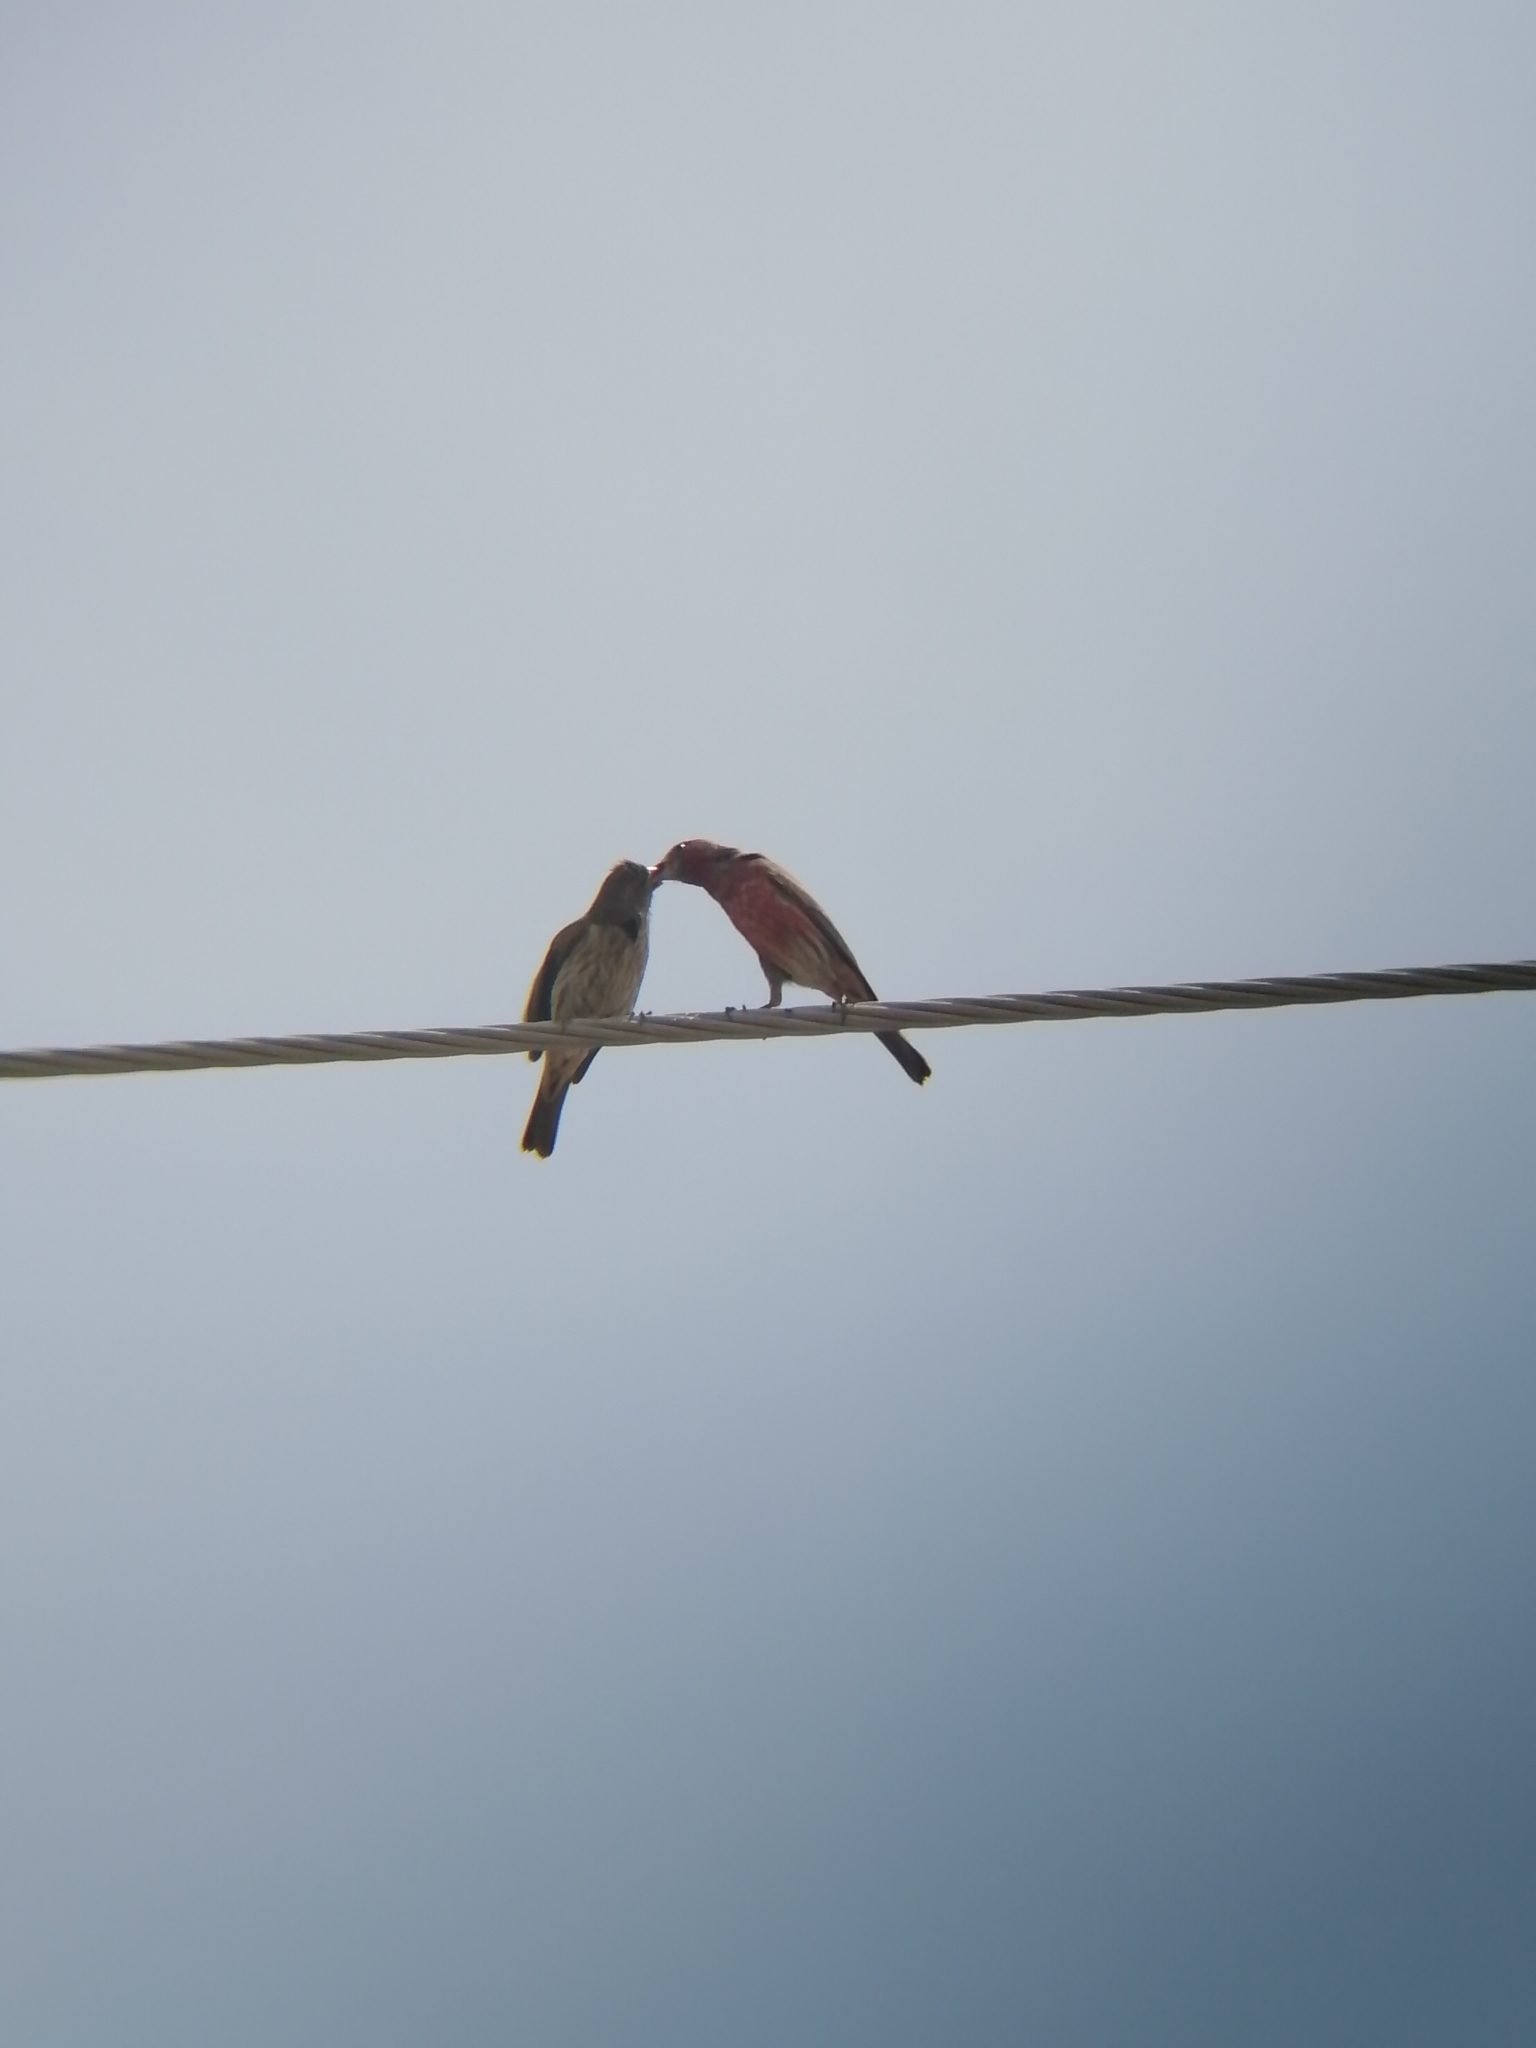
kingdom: Animalia
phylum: Chordata
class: Aves
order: Passeriformes
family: Fringillidae
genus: Haemorhous
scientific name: Haemorhous mexicanus
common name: House finch
